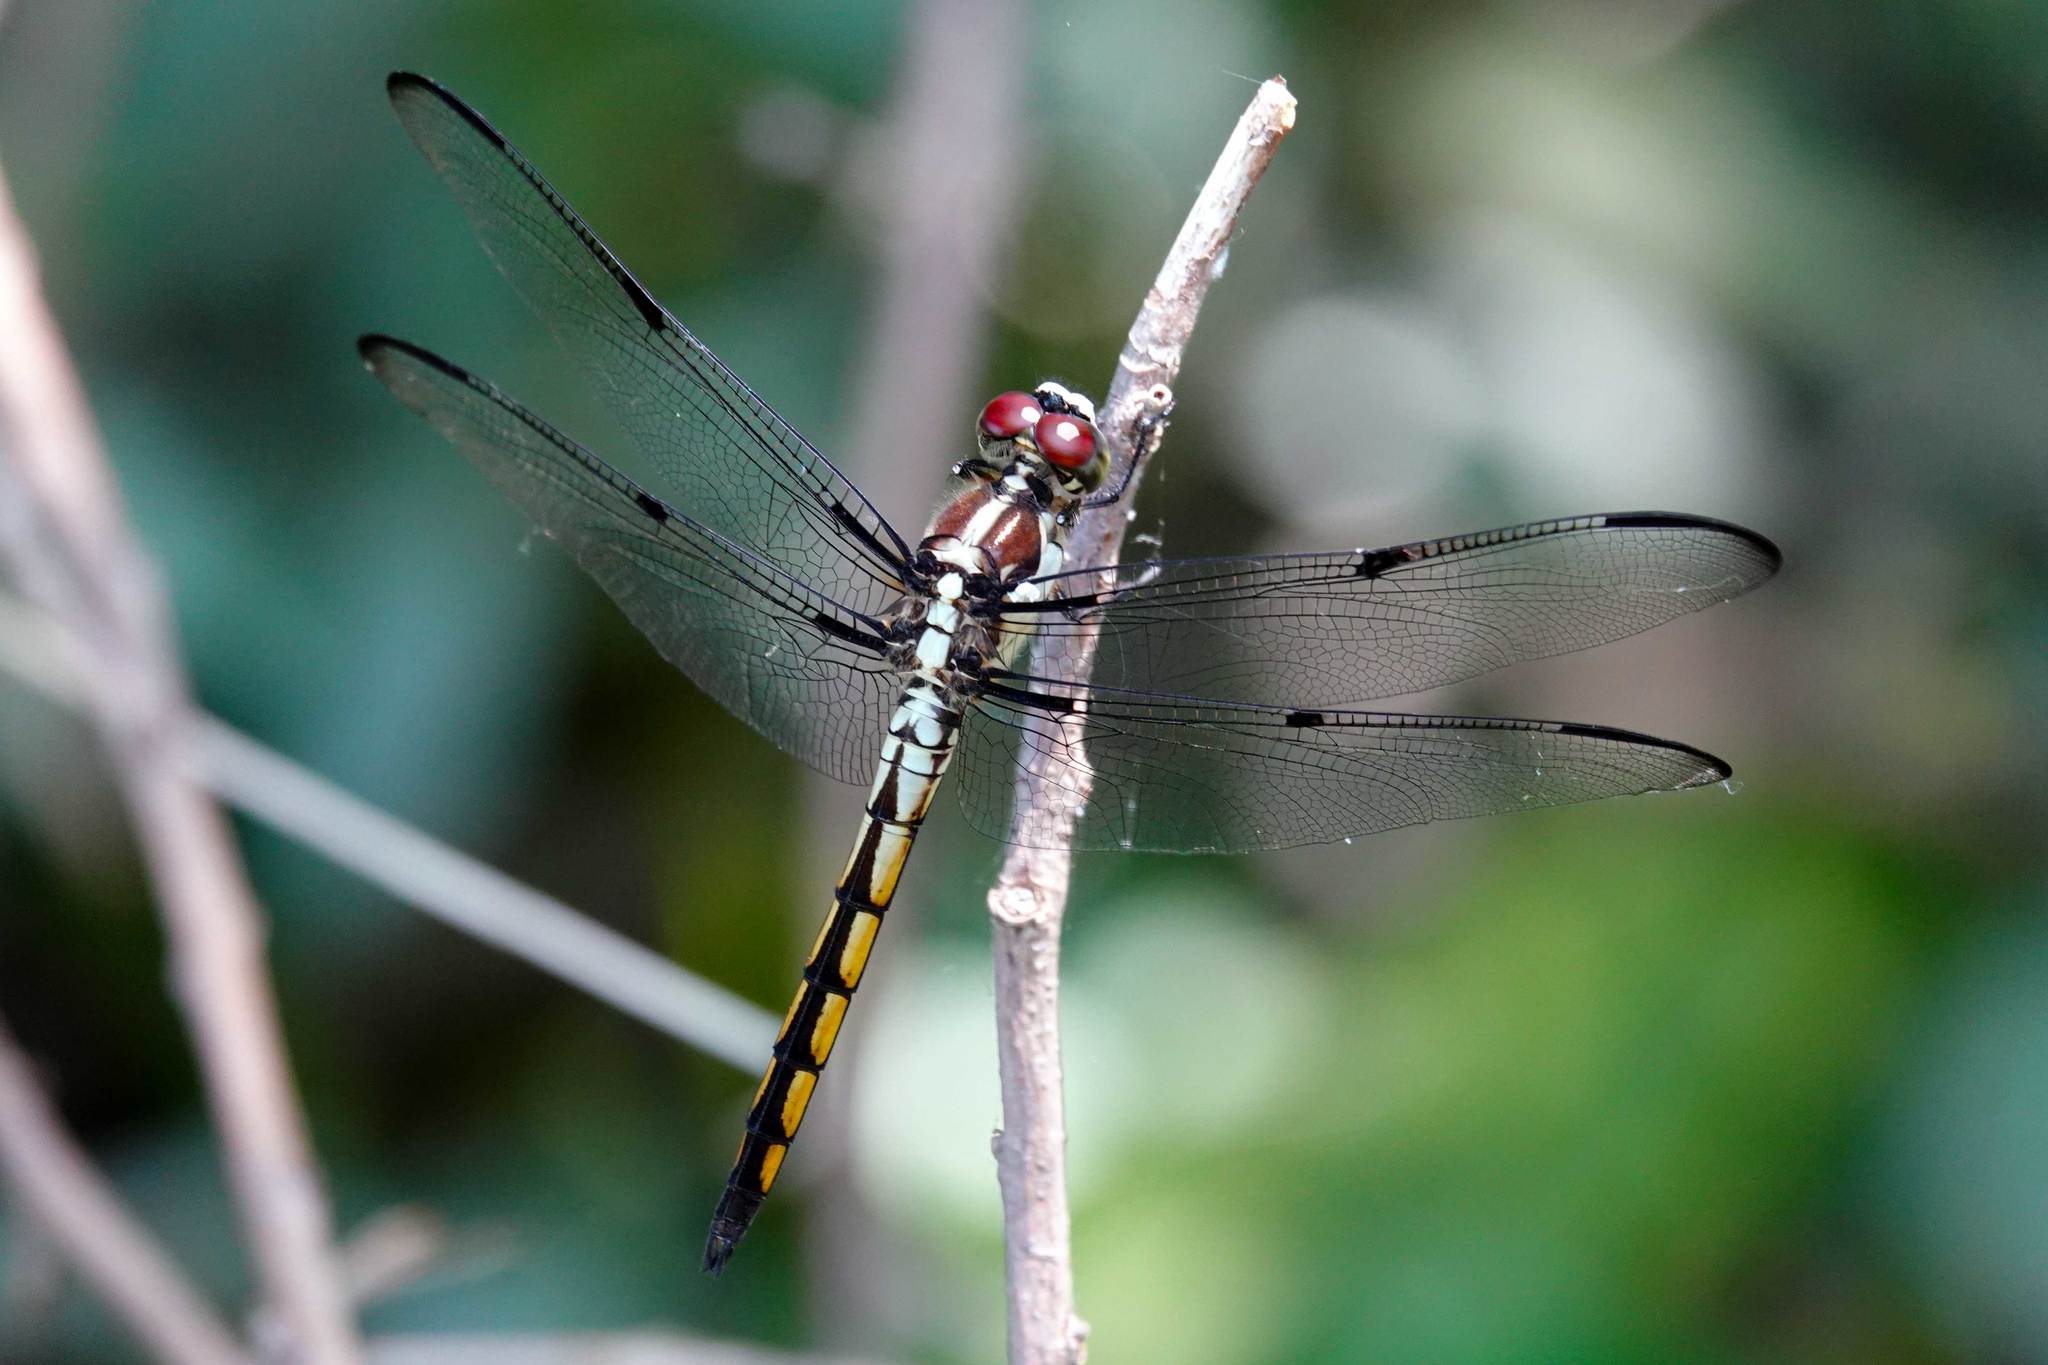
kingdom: Animalia
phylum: Arthropoda
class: Insecta
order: Odonata
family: Libellulidae
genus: Libellula
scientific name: Libellula vibrans
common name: Great blue skimmer
